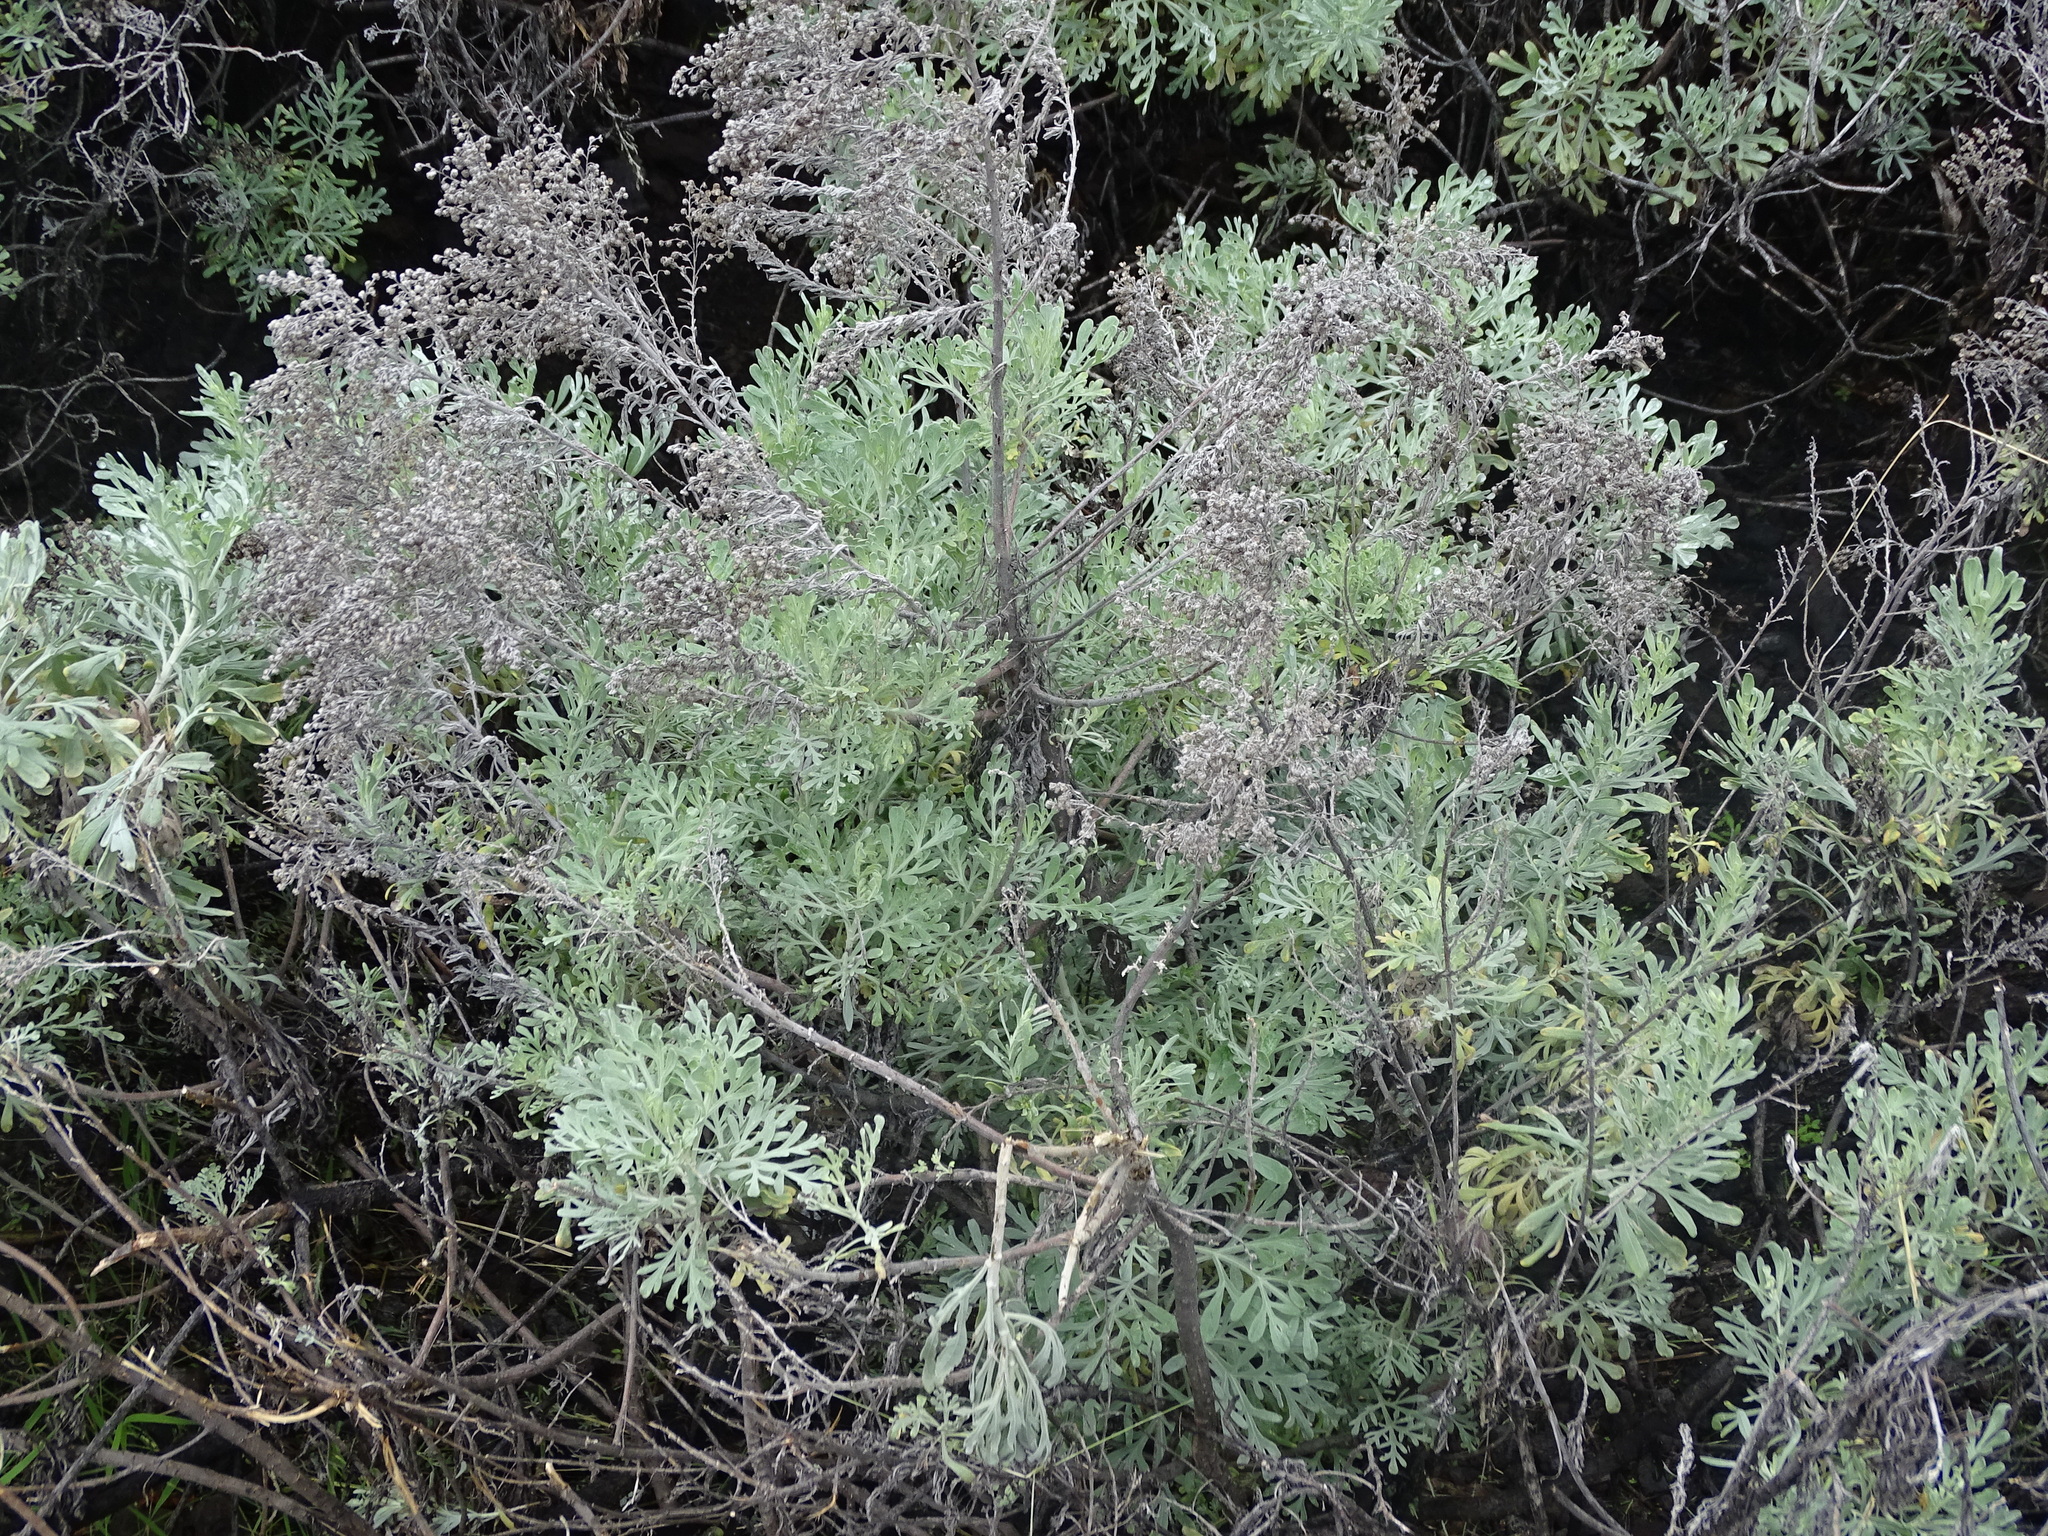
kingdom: Plantae
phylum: Tracheophyta
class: Magnoliopsida
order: Asterales
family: Asteraceae
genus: Artemisia
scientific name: Artemisia thuscula
